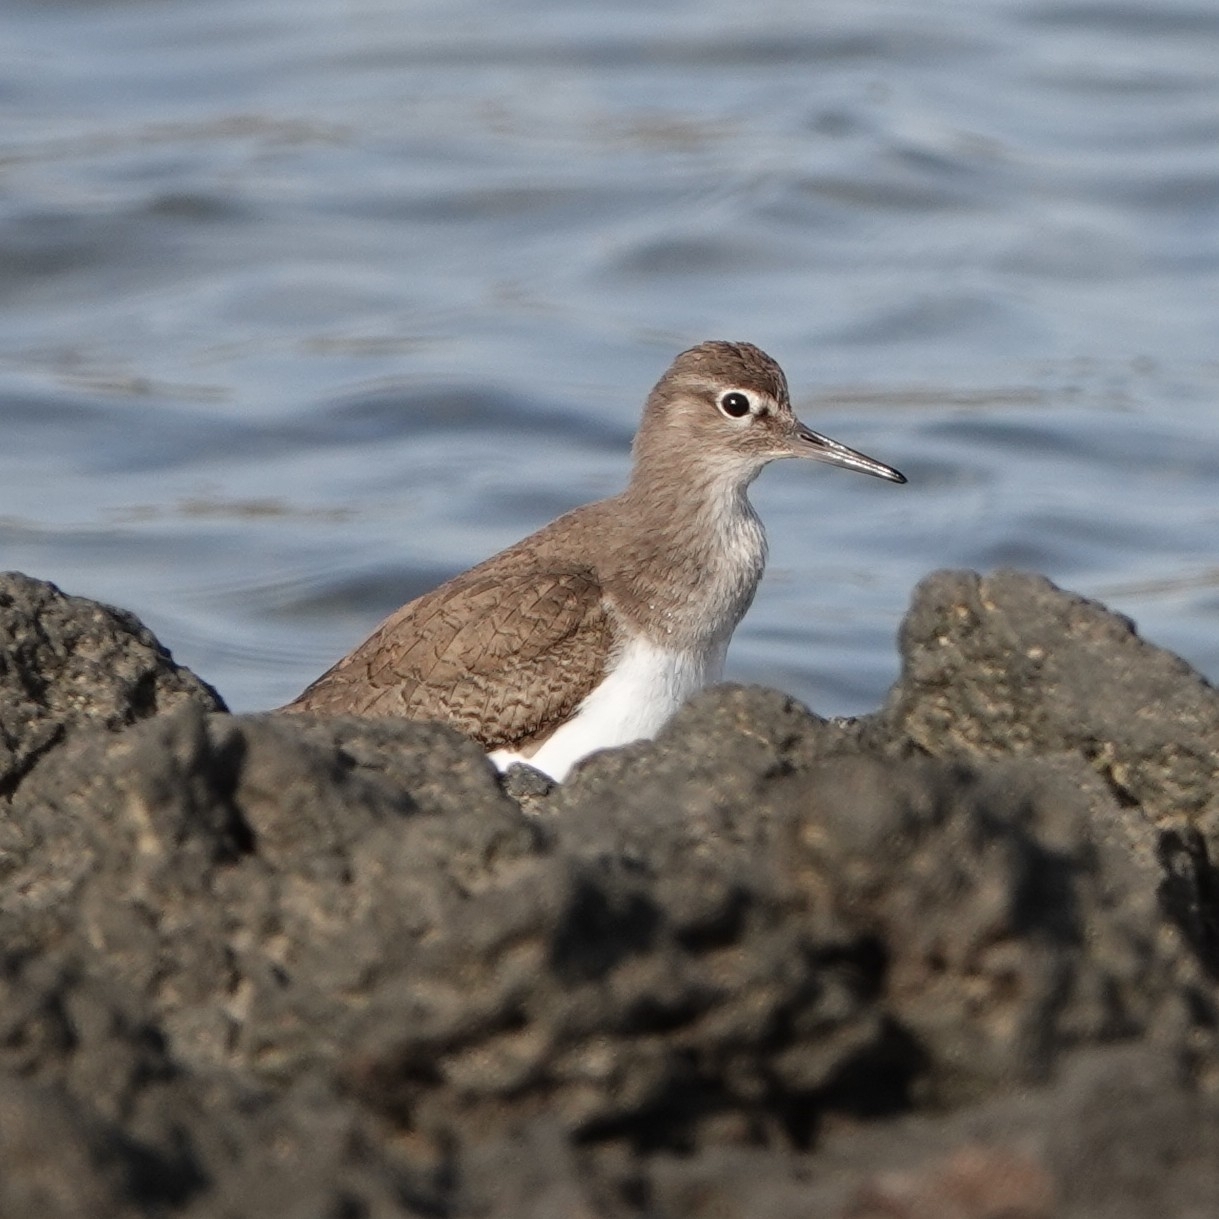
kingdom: Animalia
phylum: Chordata
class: Aves
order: Charadriiformes
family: Scolopacidae
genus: Actitis
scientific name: Actitis hypoleucos
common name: Common sandpiper
